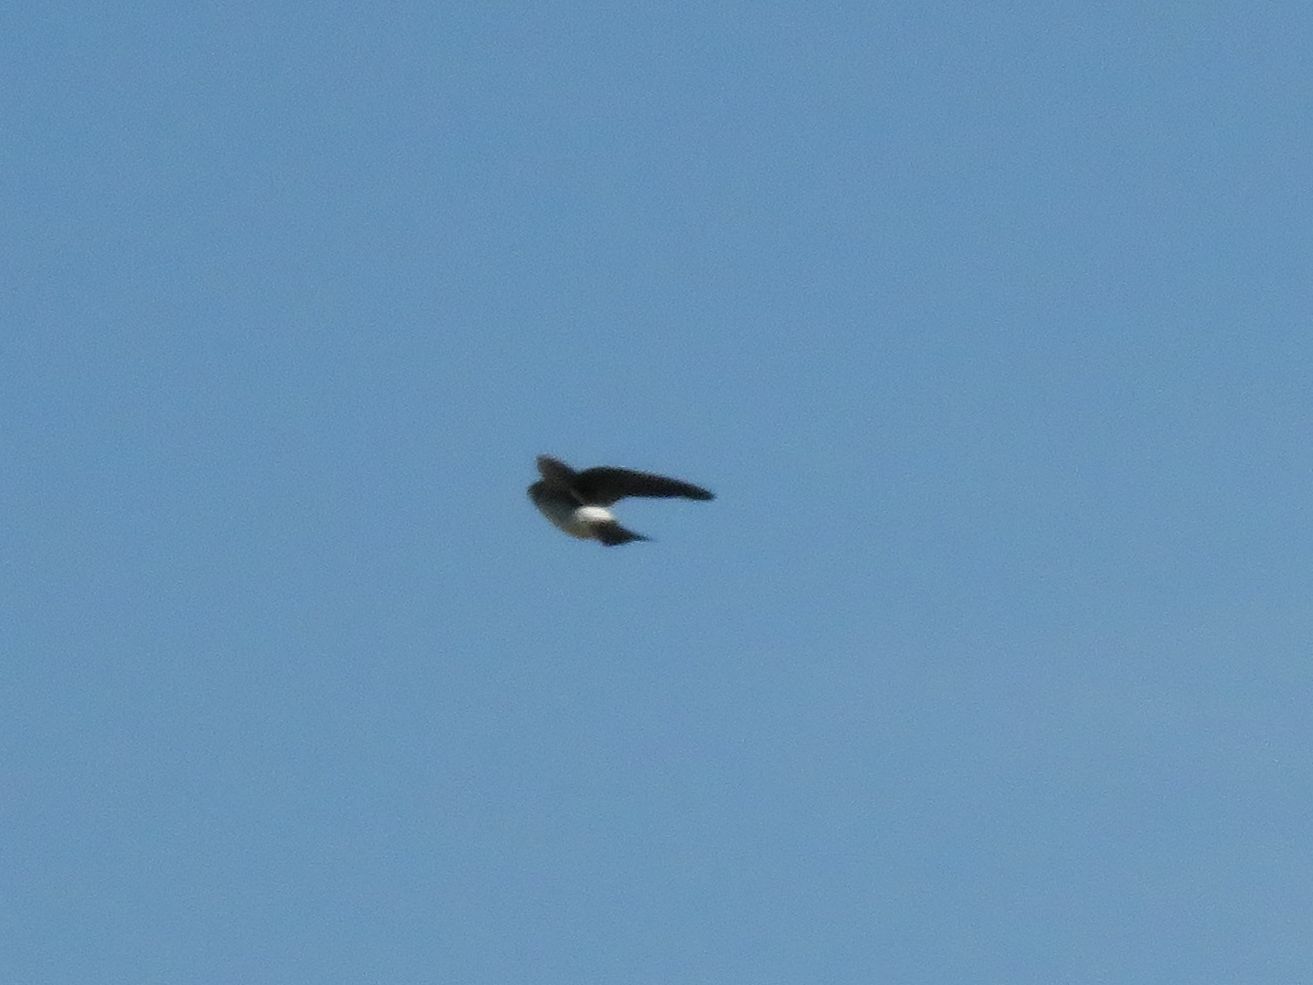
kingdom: Animalia
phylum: Chordata
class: Aves
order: Passeriformes
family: Hirundinidae
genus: Tachycineta
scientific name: Tachycineta leucorrhoa
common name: White-rumped swallow
